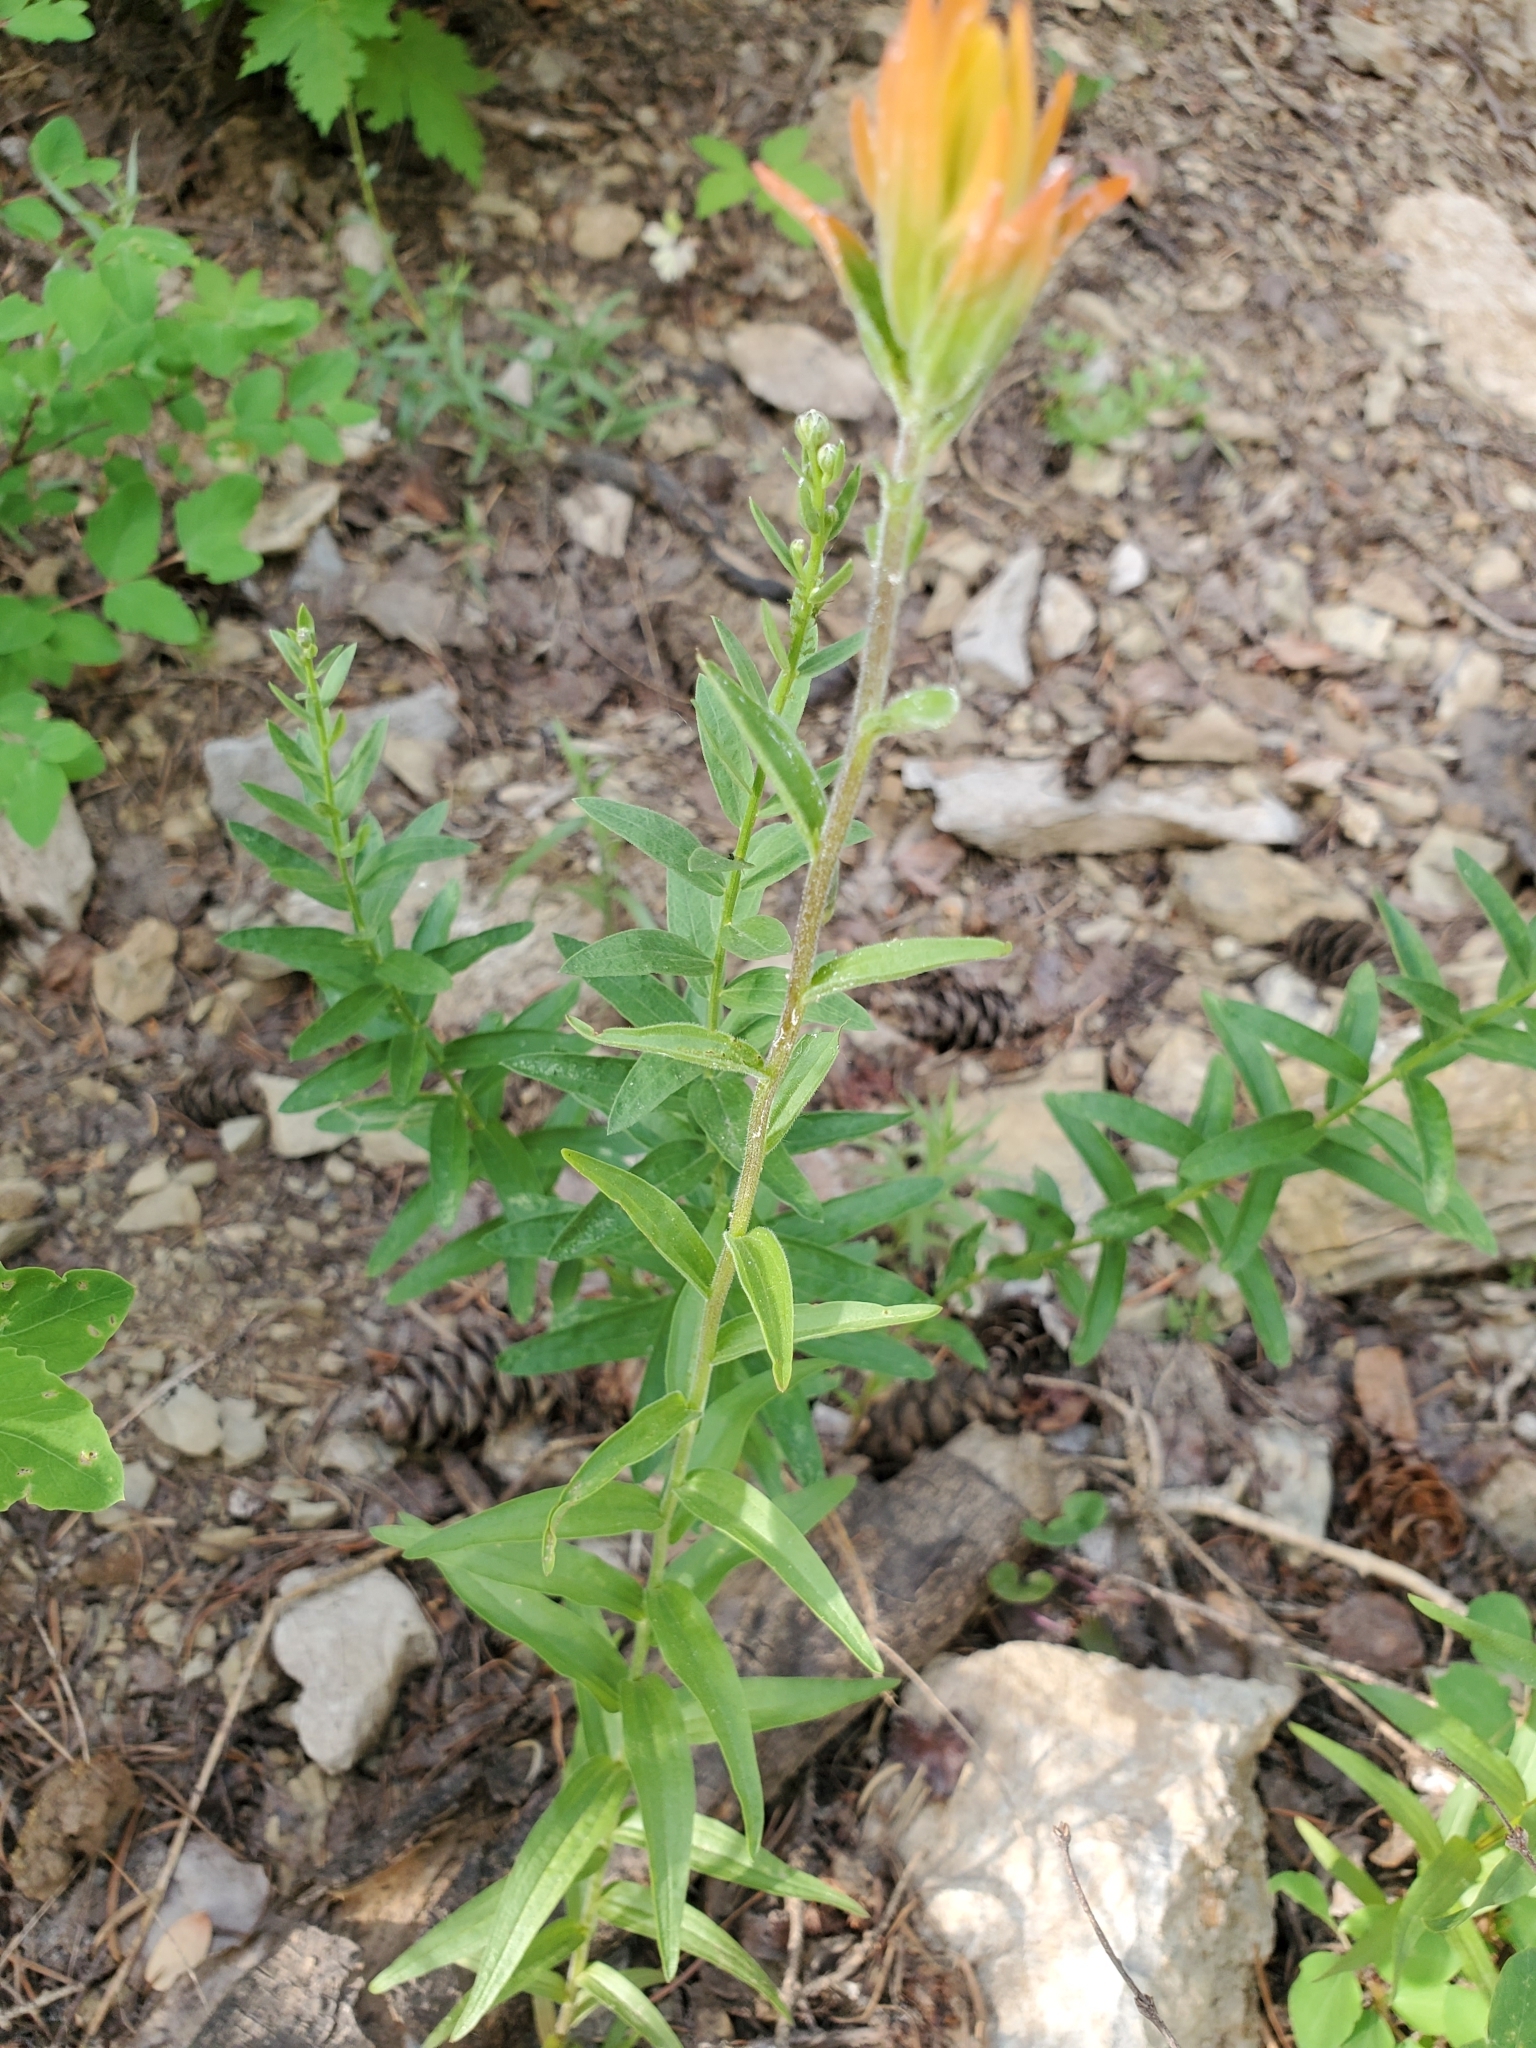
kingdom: Plantae
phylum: Tracheophyta
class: Magnoliopsida
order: Lamiales
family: Orobanchaceae
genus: Castilleja
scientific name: Castilleja miniata
